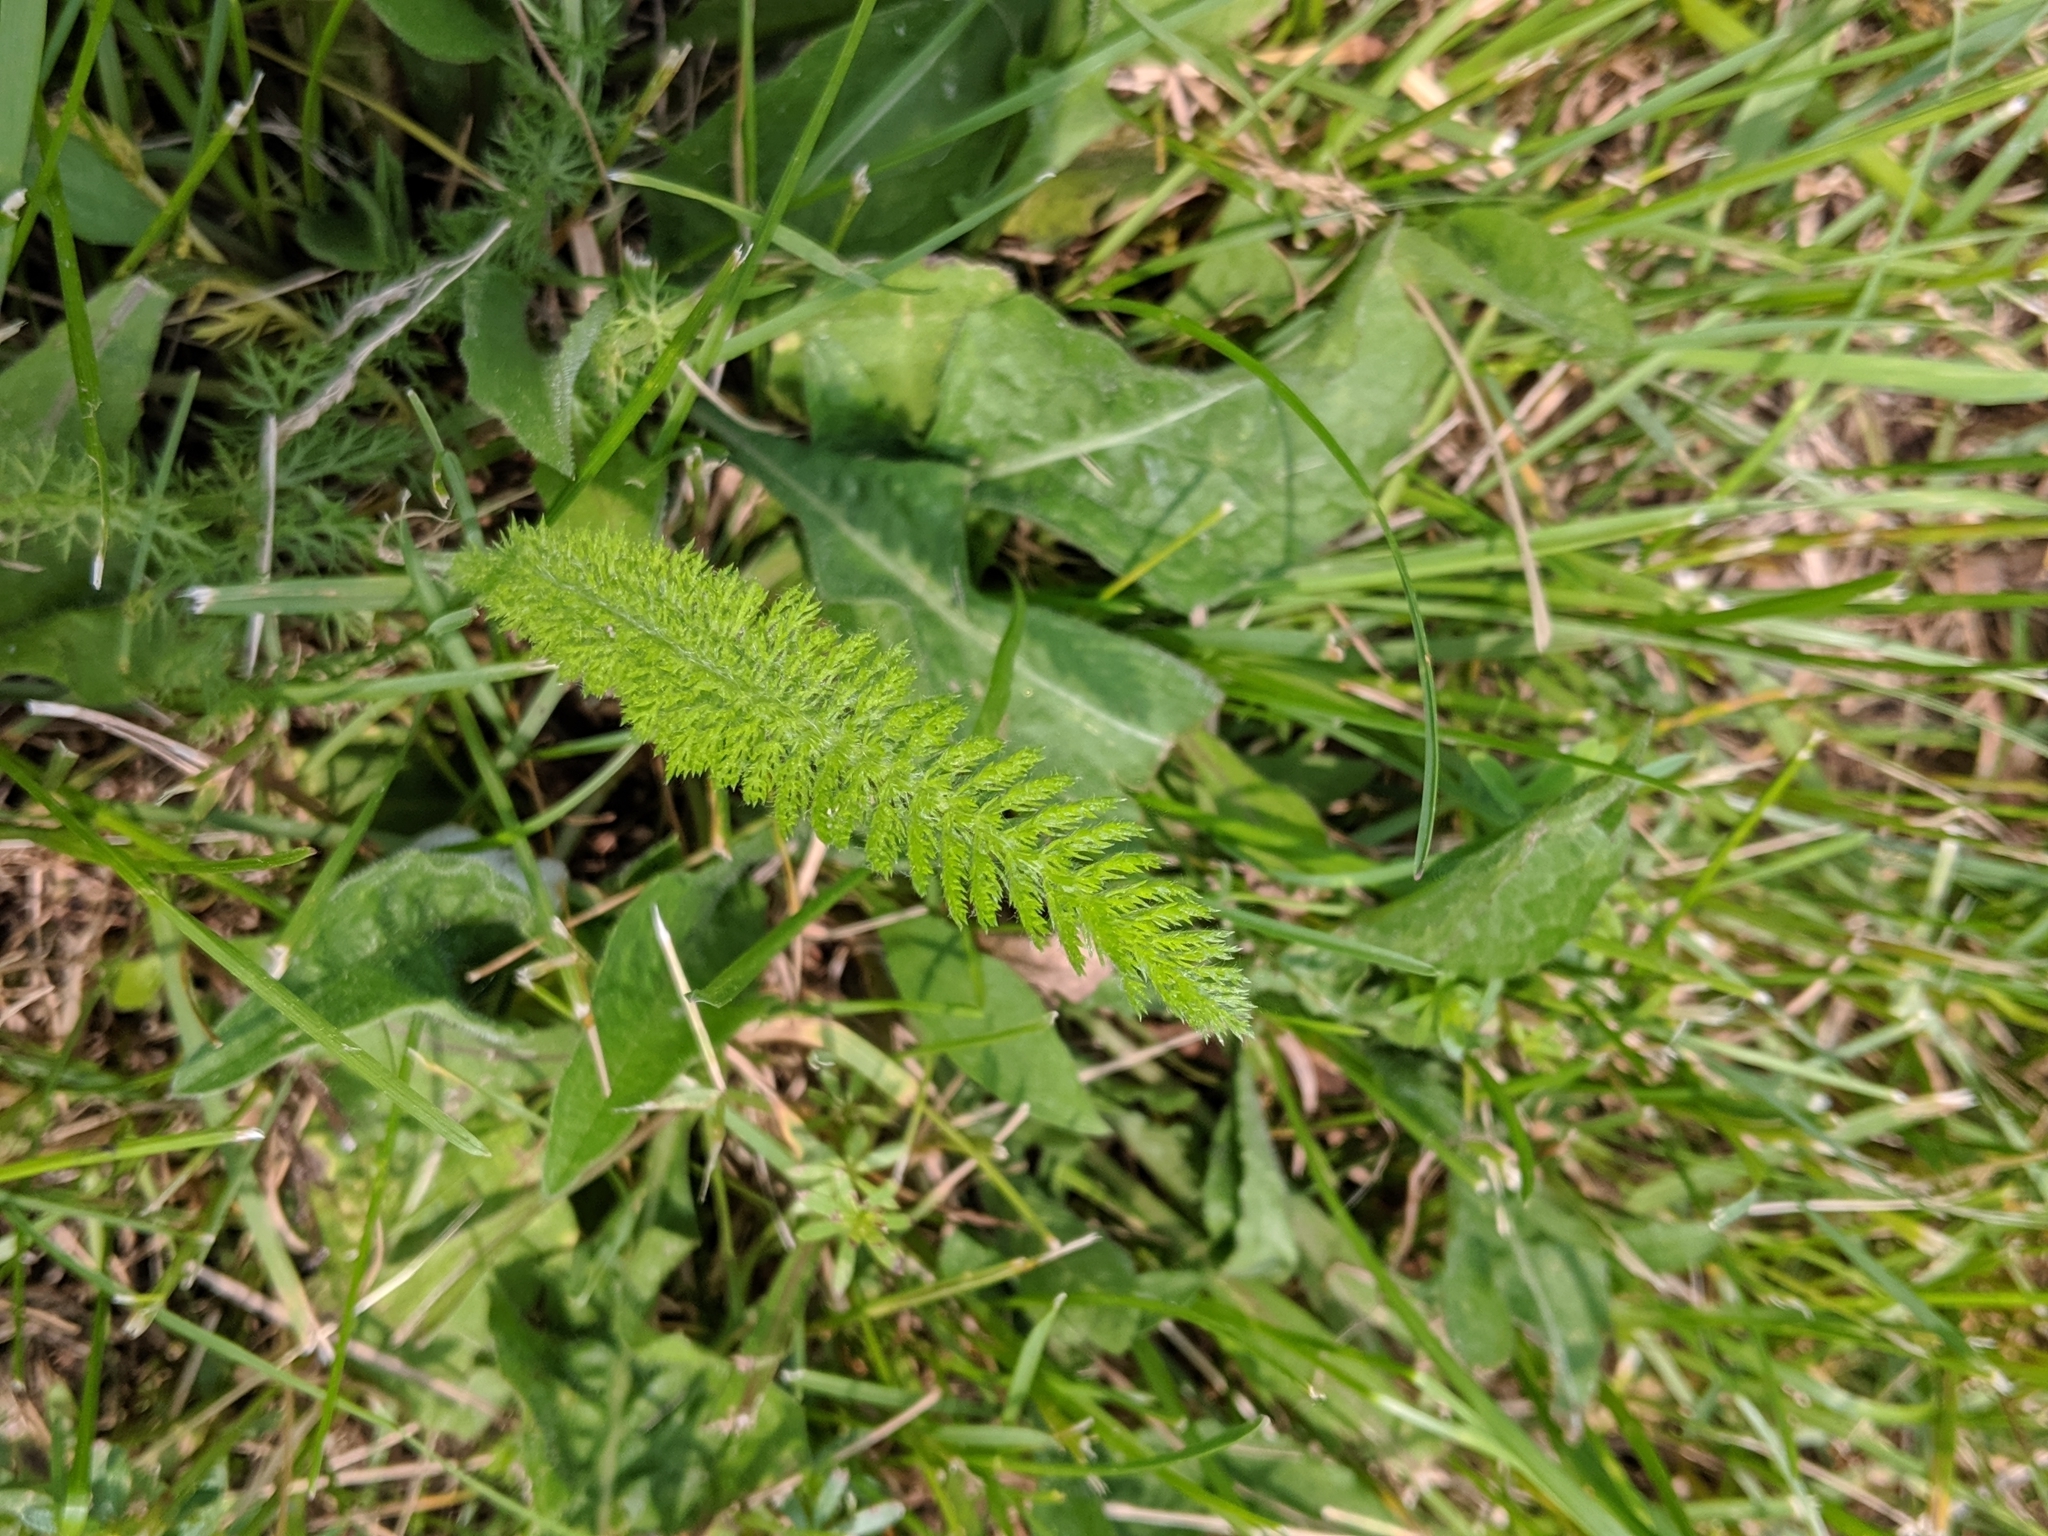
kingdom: Plantae
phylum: Tracheophyta
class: Magnoliopsida
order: Asterales
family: Asteraceae
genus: Achillea
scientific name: Achillea millefolium
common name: Yarrow
